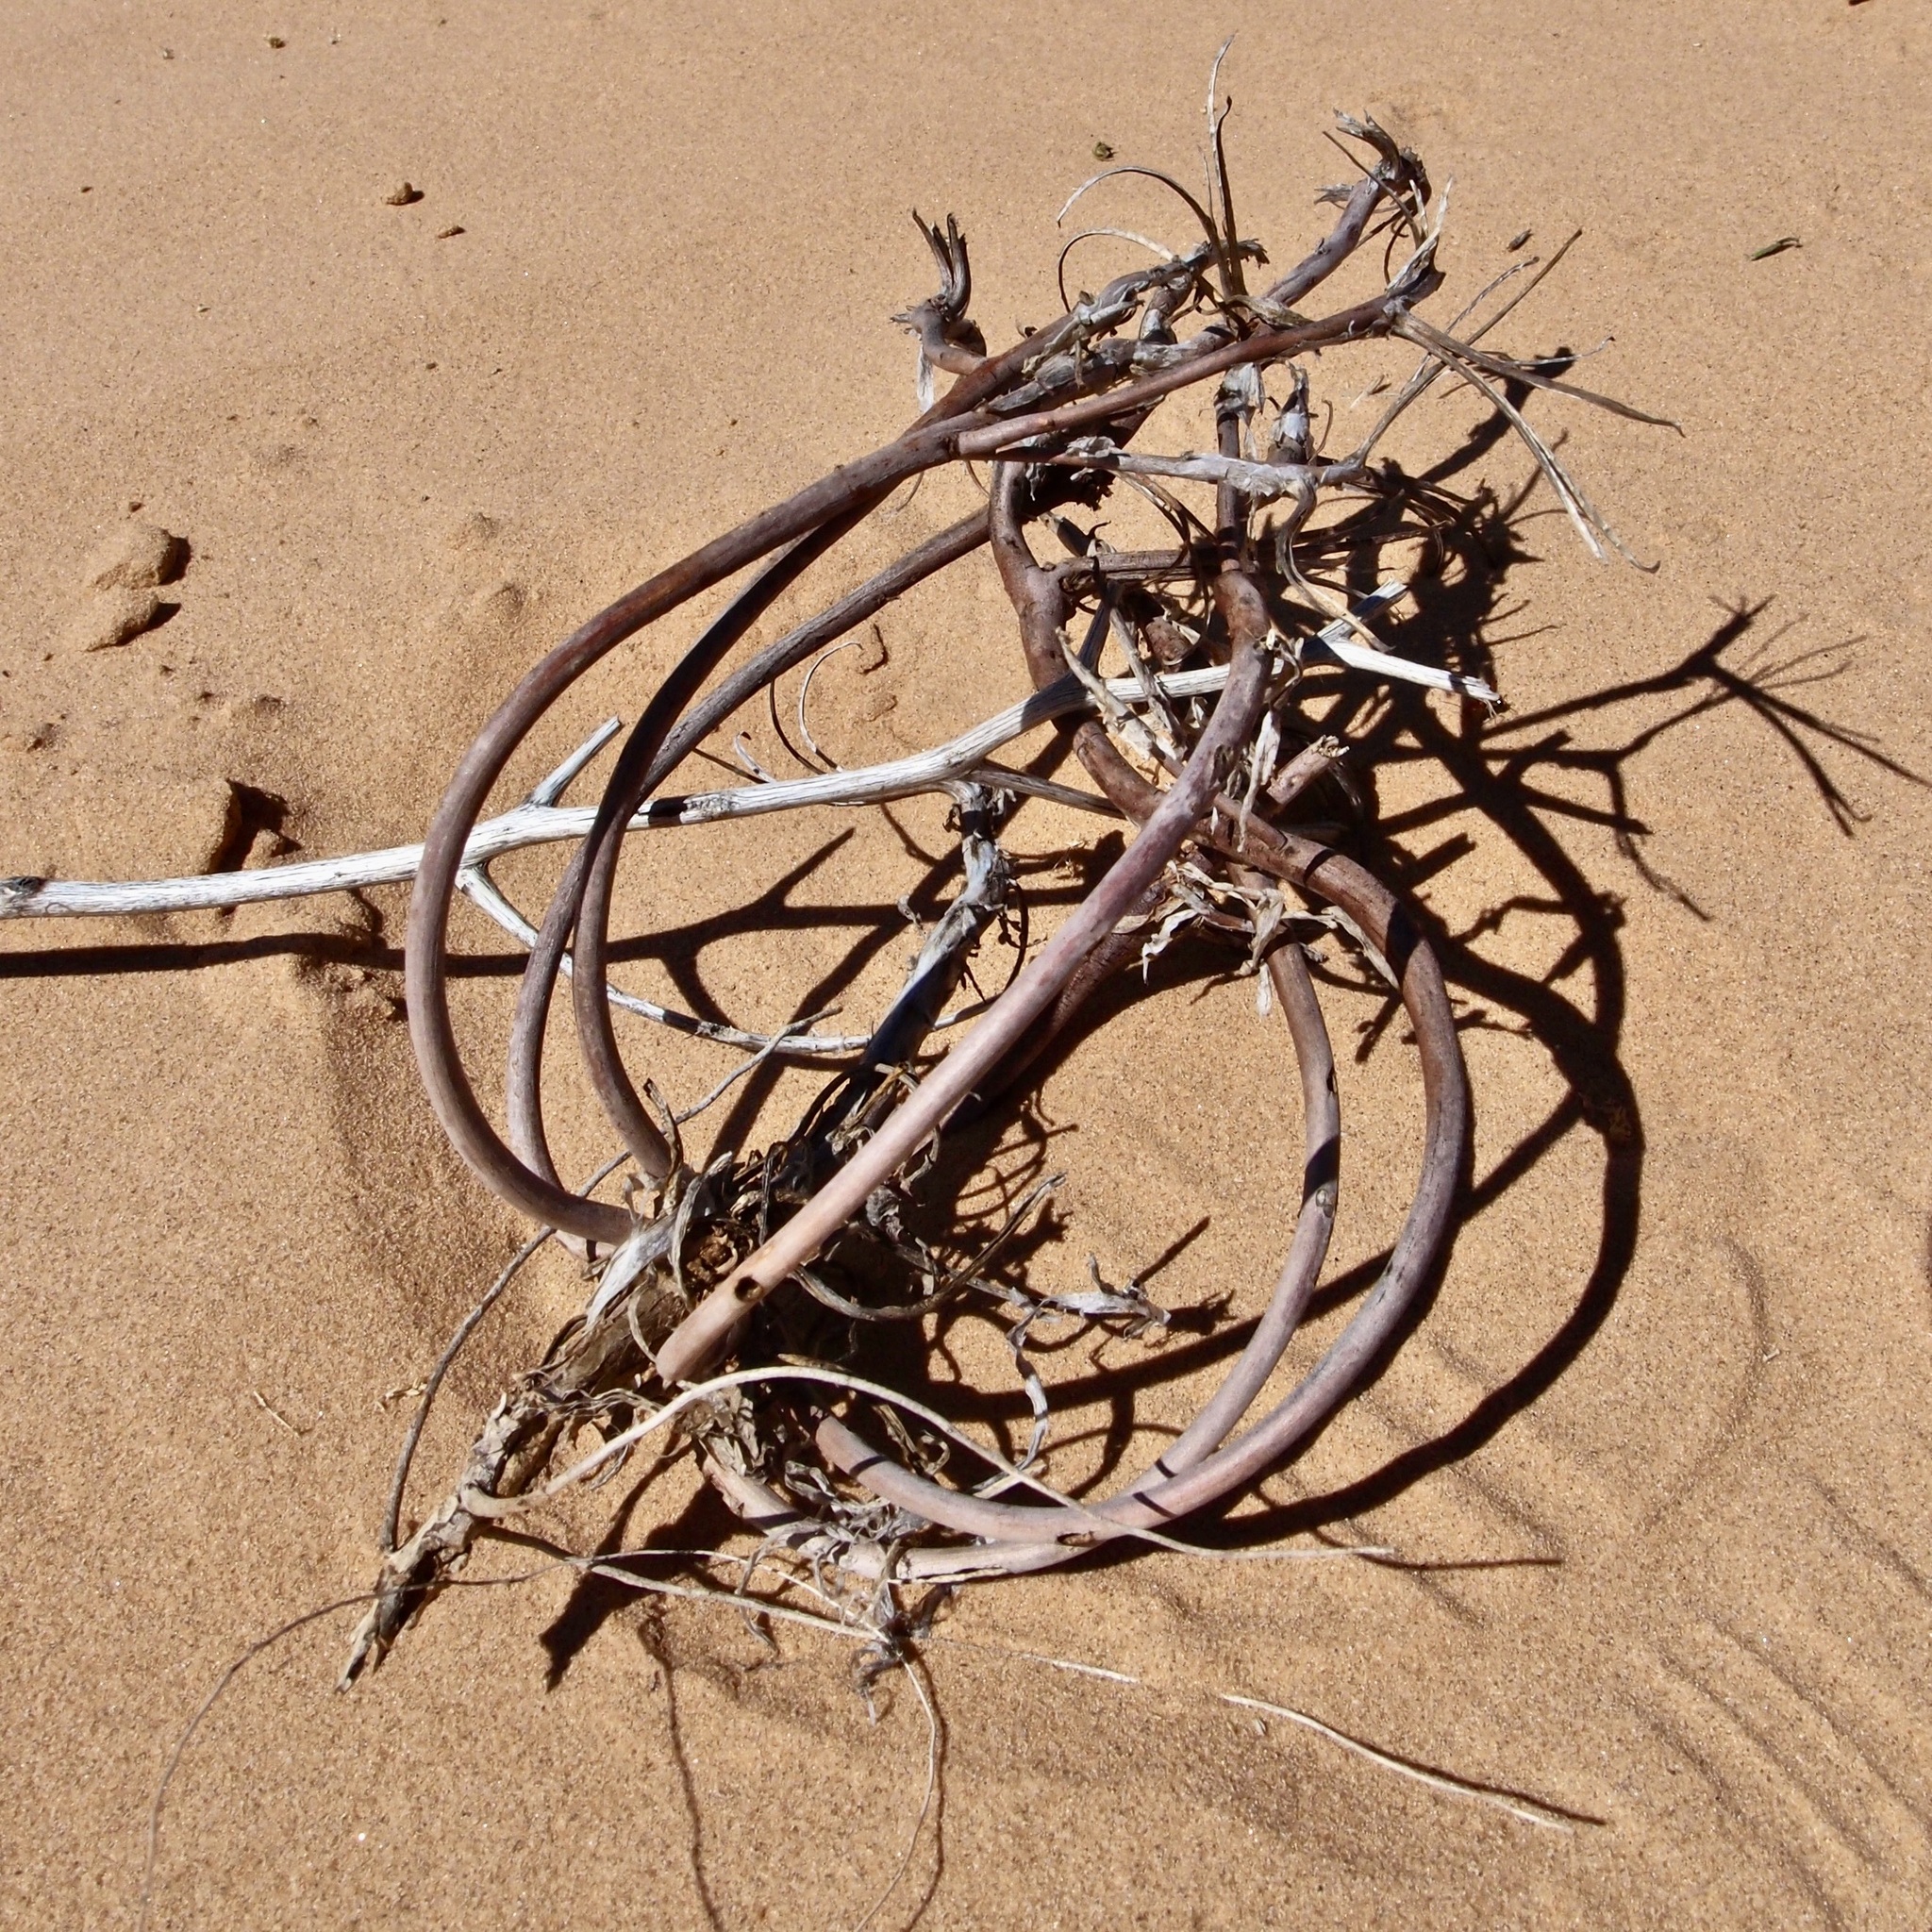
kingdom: Plantae
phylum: Tracheophyta
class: Magnoliopsida
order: Myrtales
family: Onagraceae
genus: Oenothera
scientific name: Oenothera deltoides
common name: Basket evening-primrose
